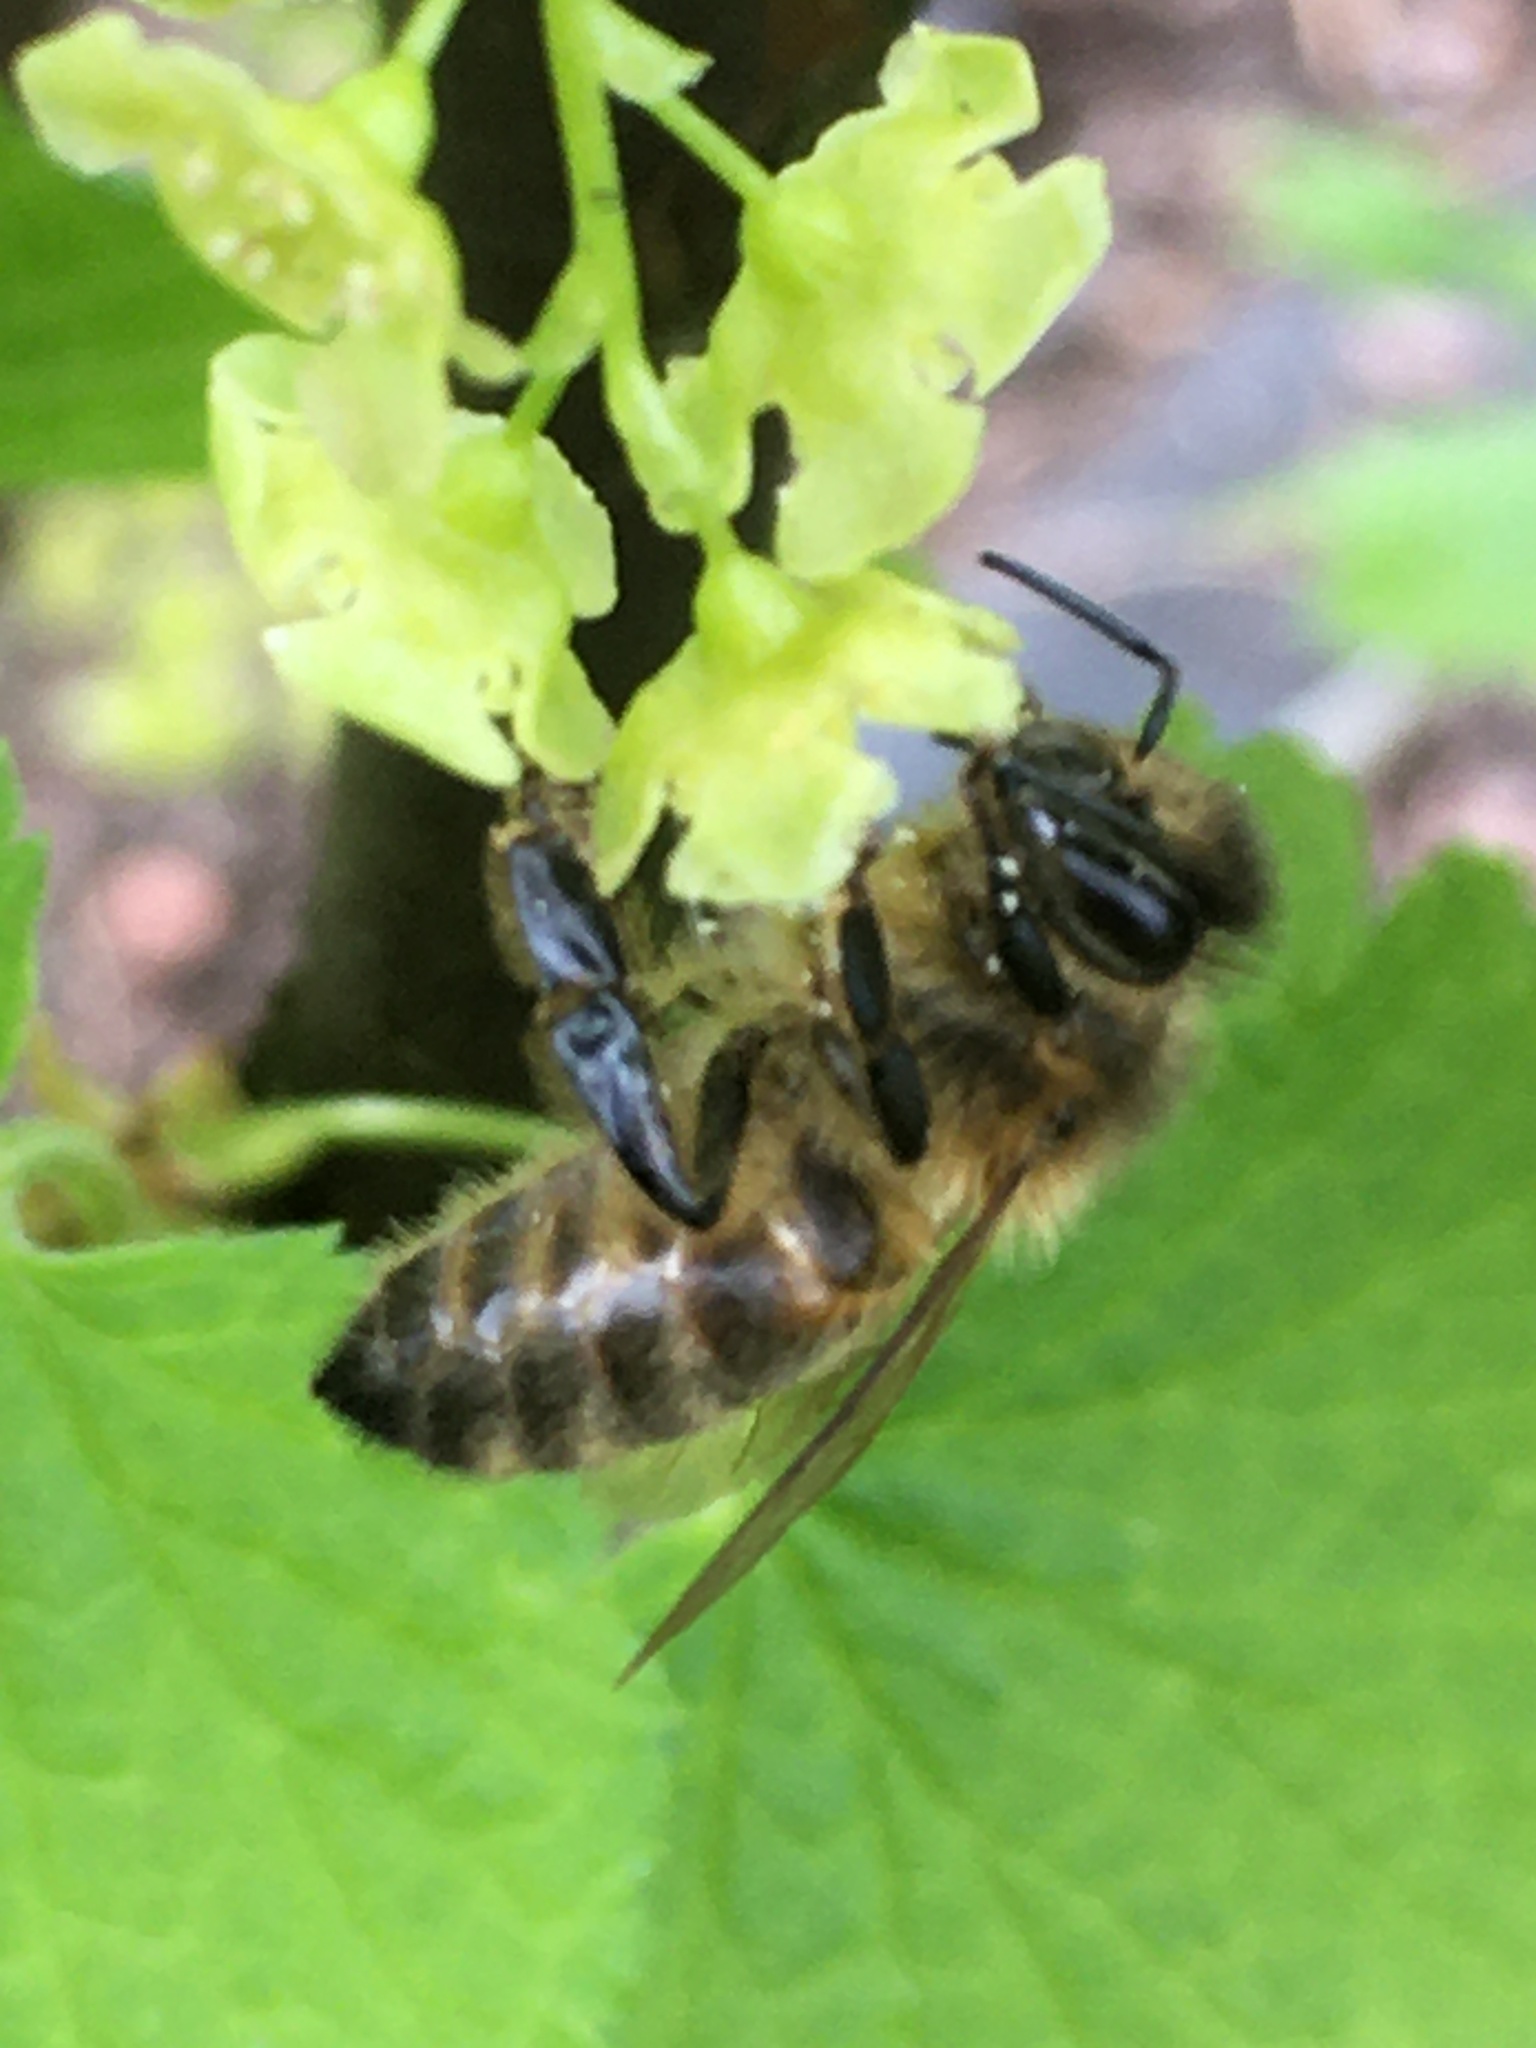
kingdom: Animalia
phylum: Arthropoda
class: Insecta
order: Hymenoptera
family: Apidae
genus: Apis
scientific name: Apis mellifera
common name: Honey bee
